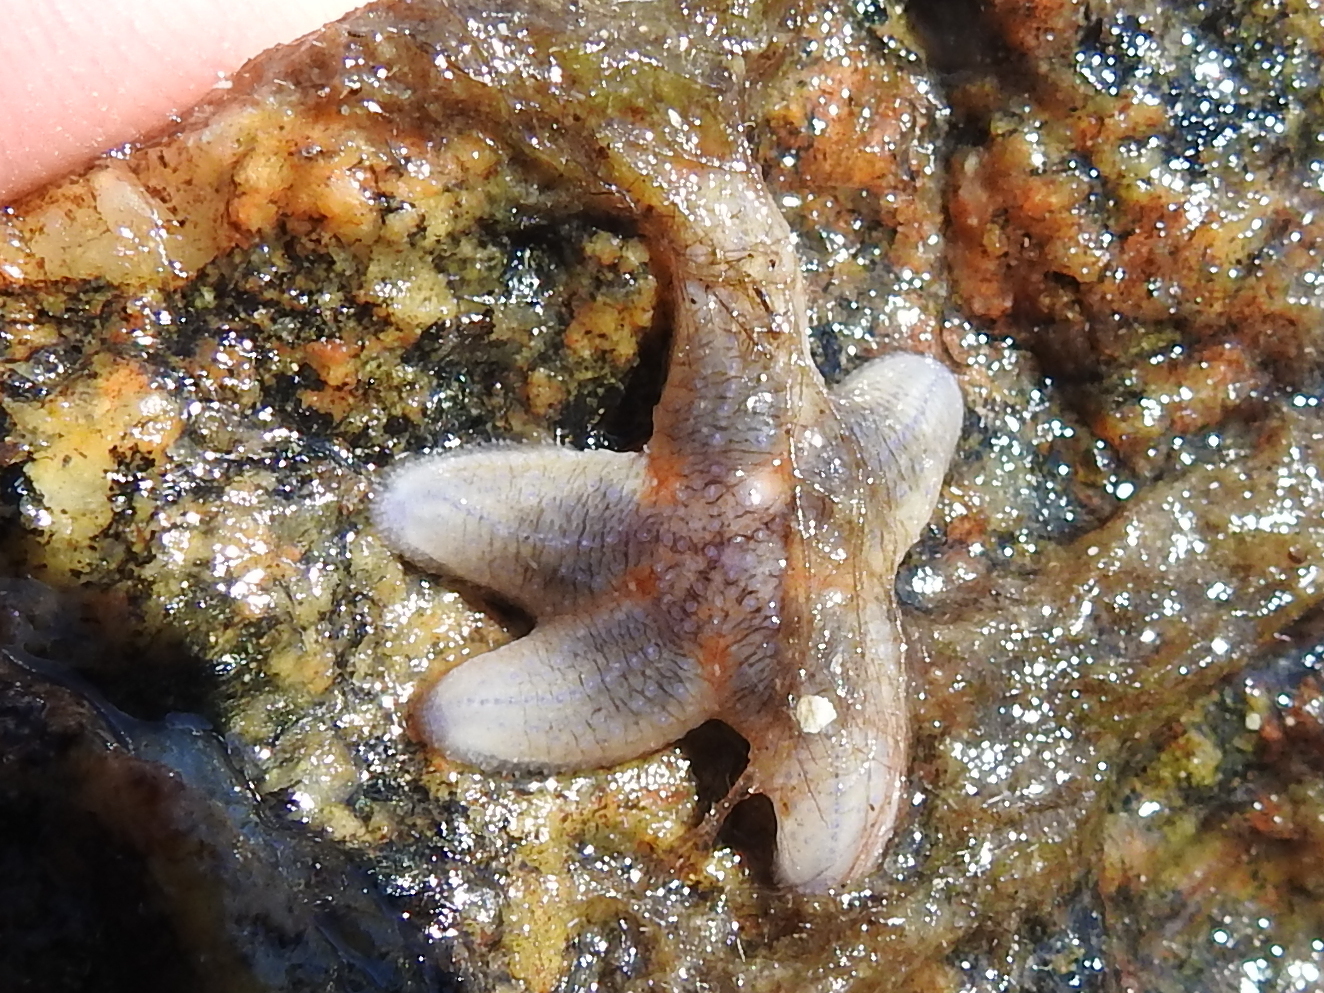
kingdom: Animalia
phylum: Echinodermata
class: Asteroidea
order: Forcipulatida
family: Asteriidae
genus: Asterias
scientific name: Asterias rubens
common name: Common starfish
